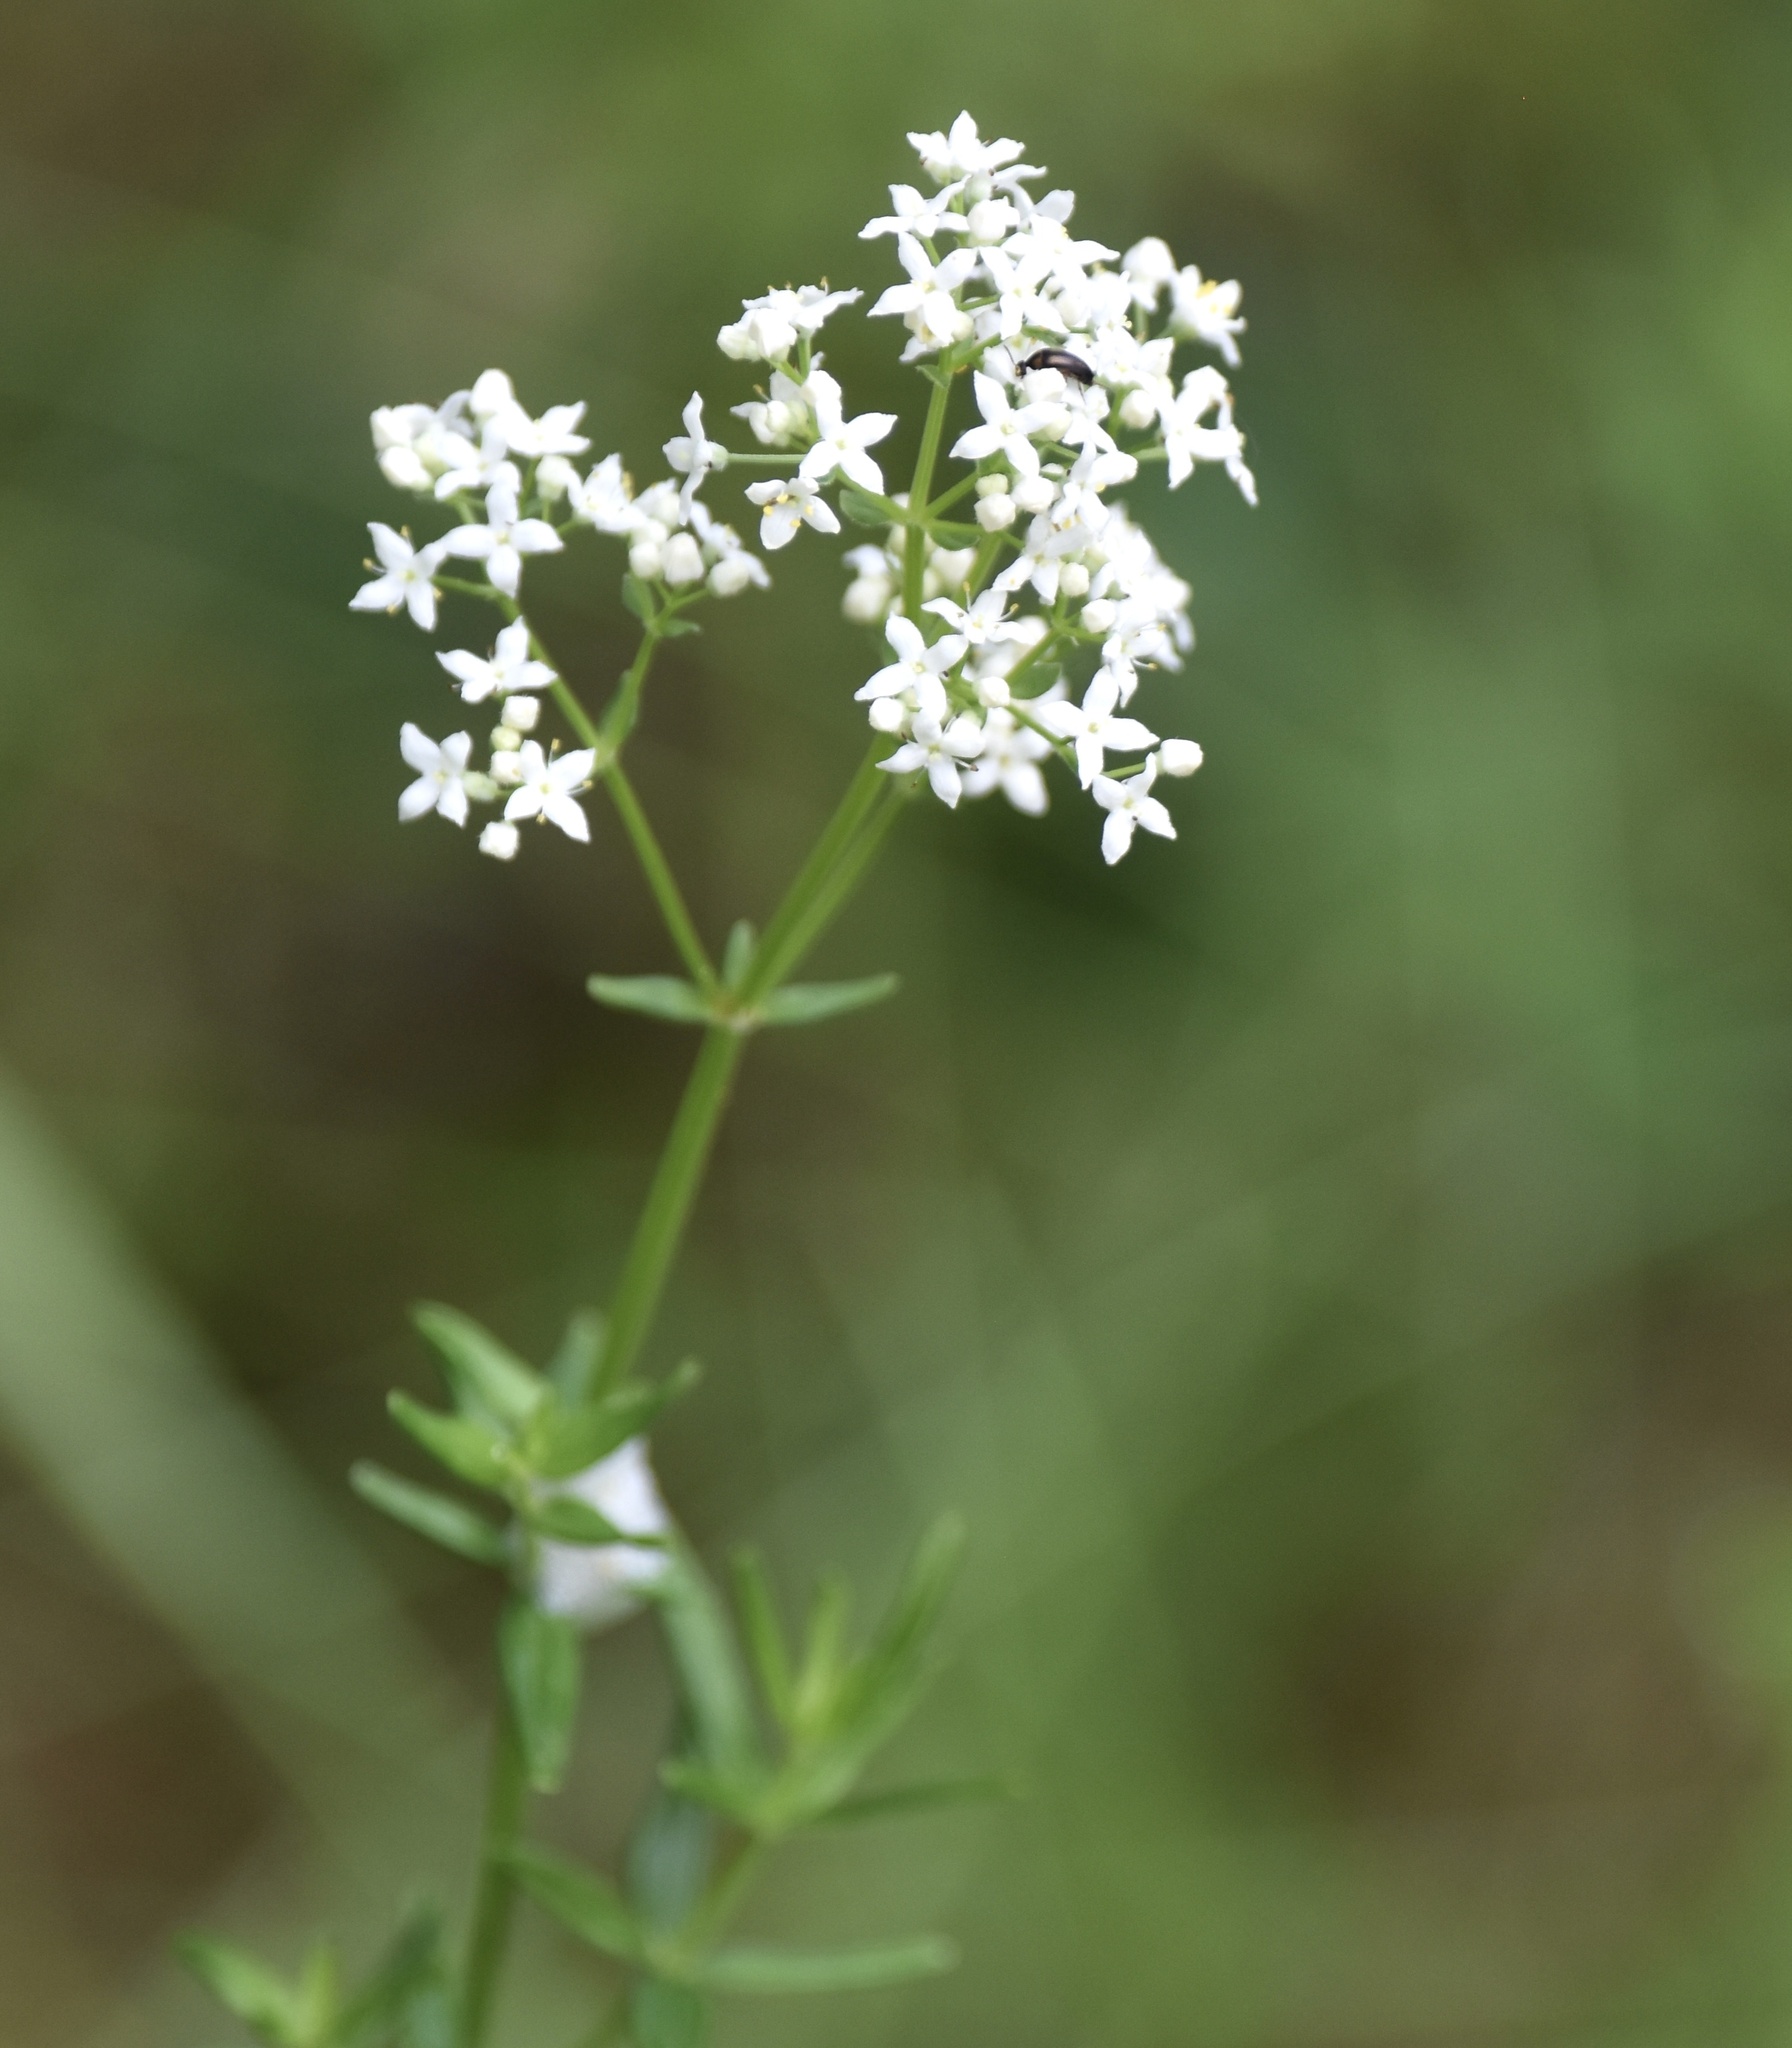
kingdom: Plantae
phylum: Tracheophyta
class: Magnoliopsida
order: Gentianales
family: Rubiaceae
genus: Galium
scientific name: Galium boreale
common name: Northern bedstraw
